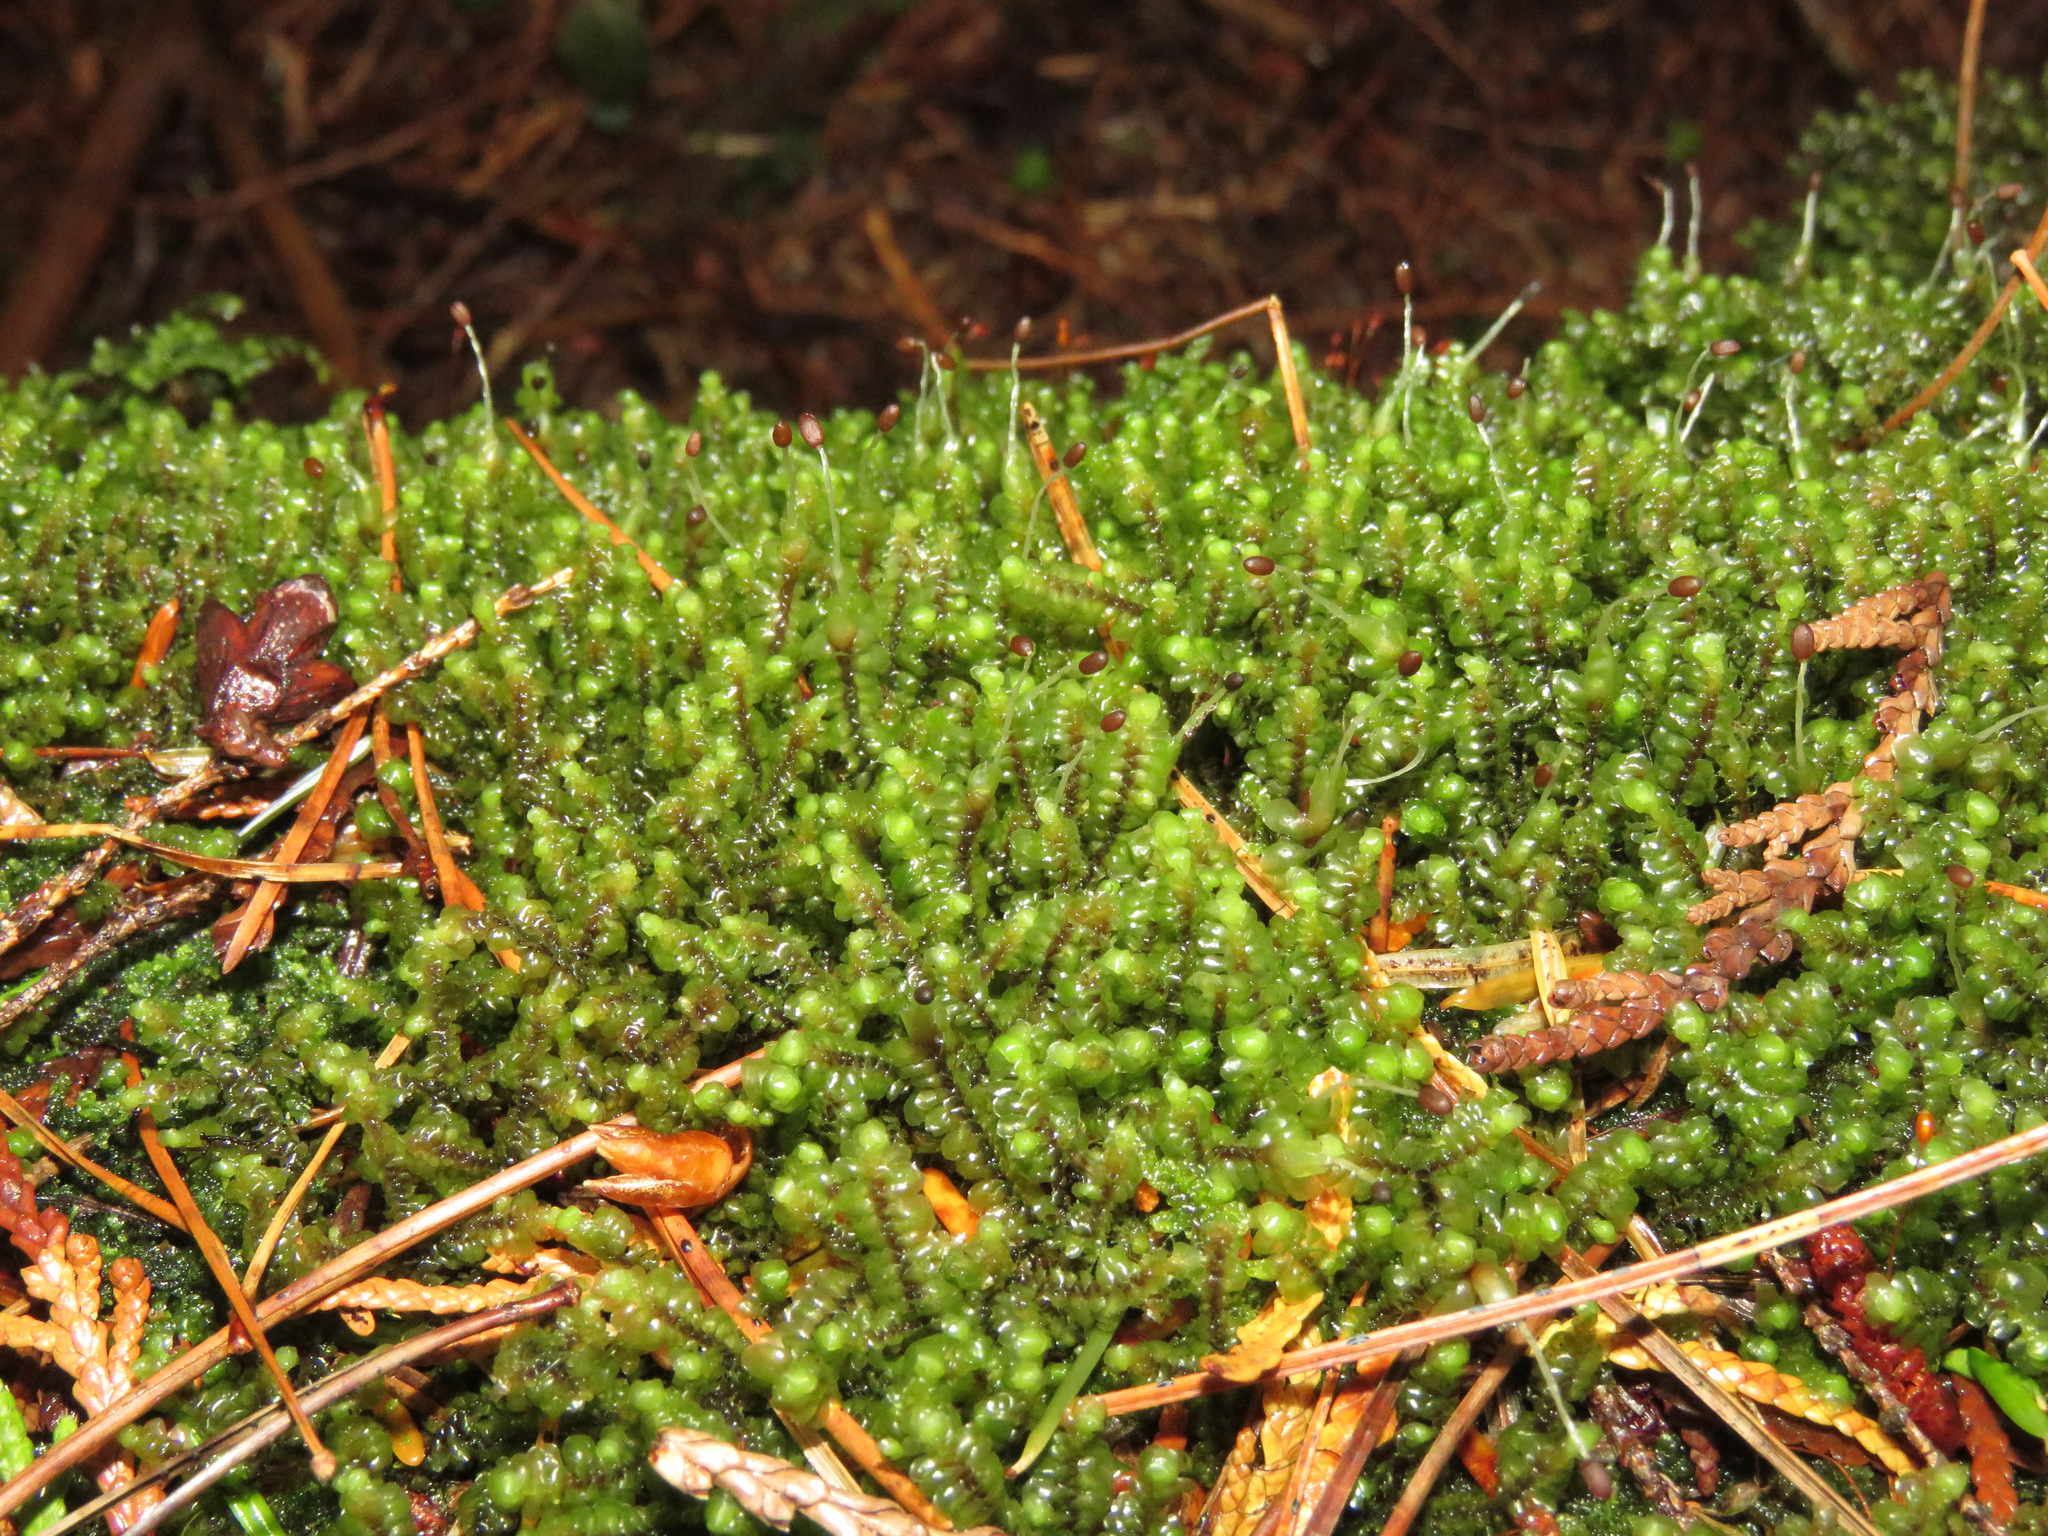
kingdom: Plantae
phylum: Marchantiophyta
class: Jungermanniopsida
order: Jungermanniales
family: Scapaniaceae
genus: Scapania
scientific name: Scapania bolanderi
